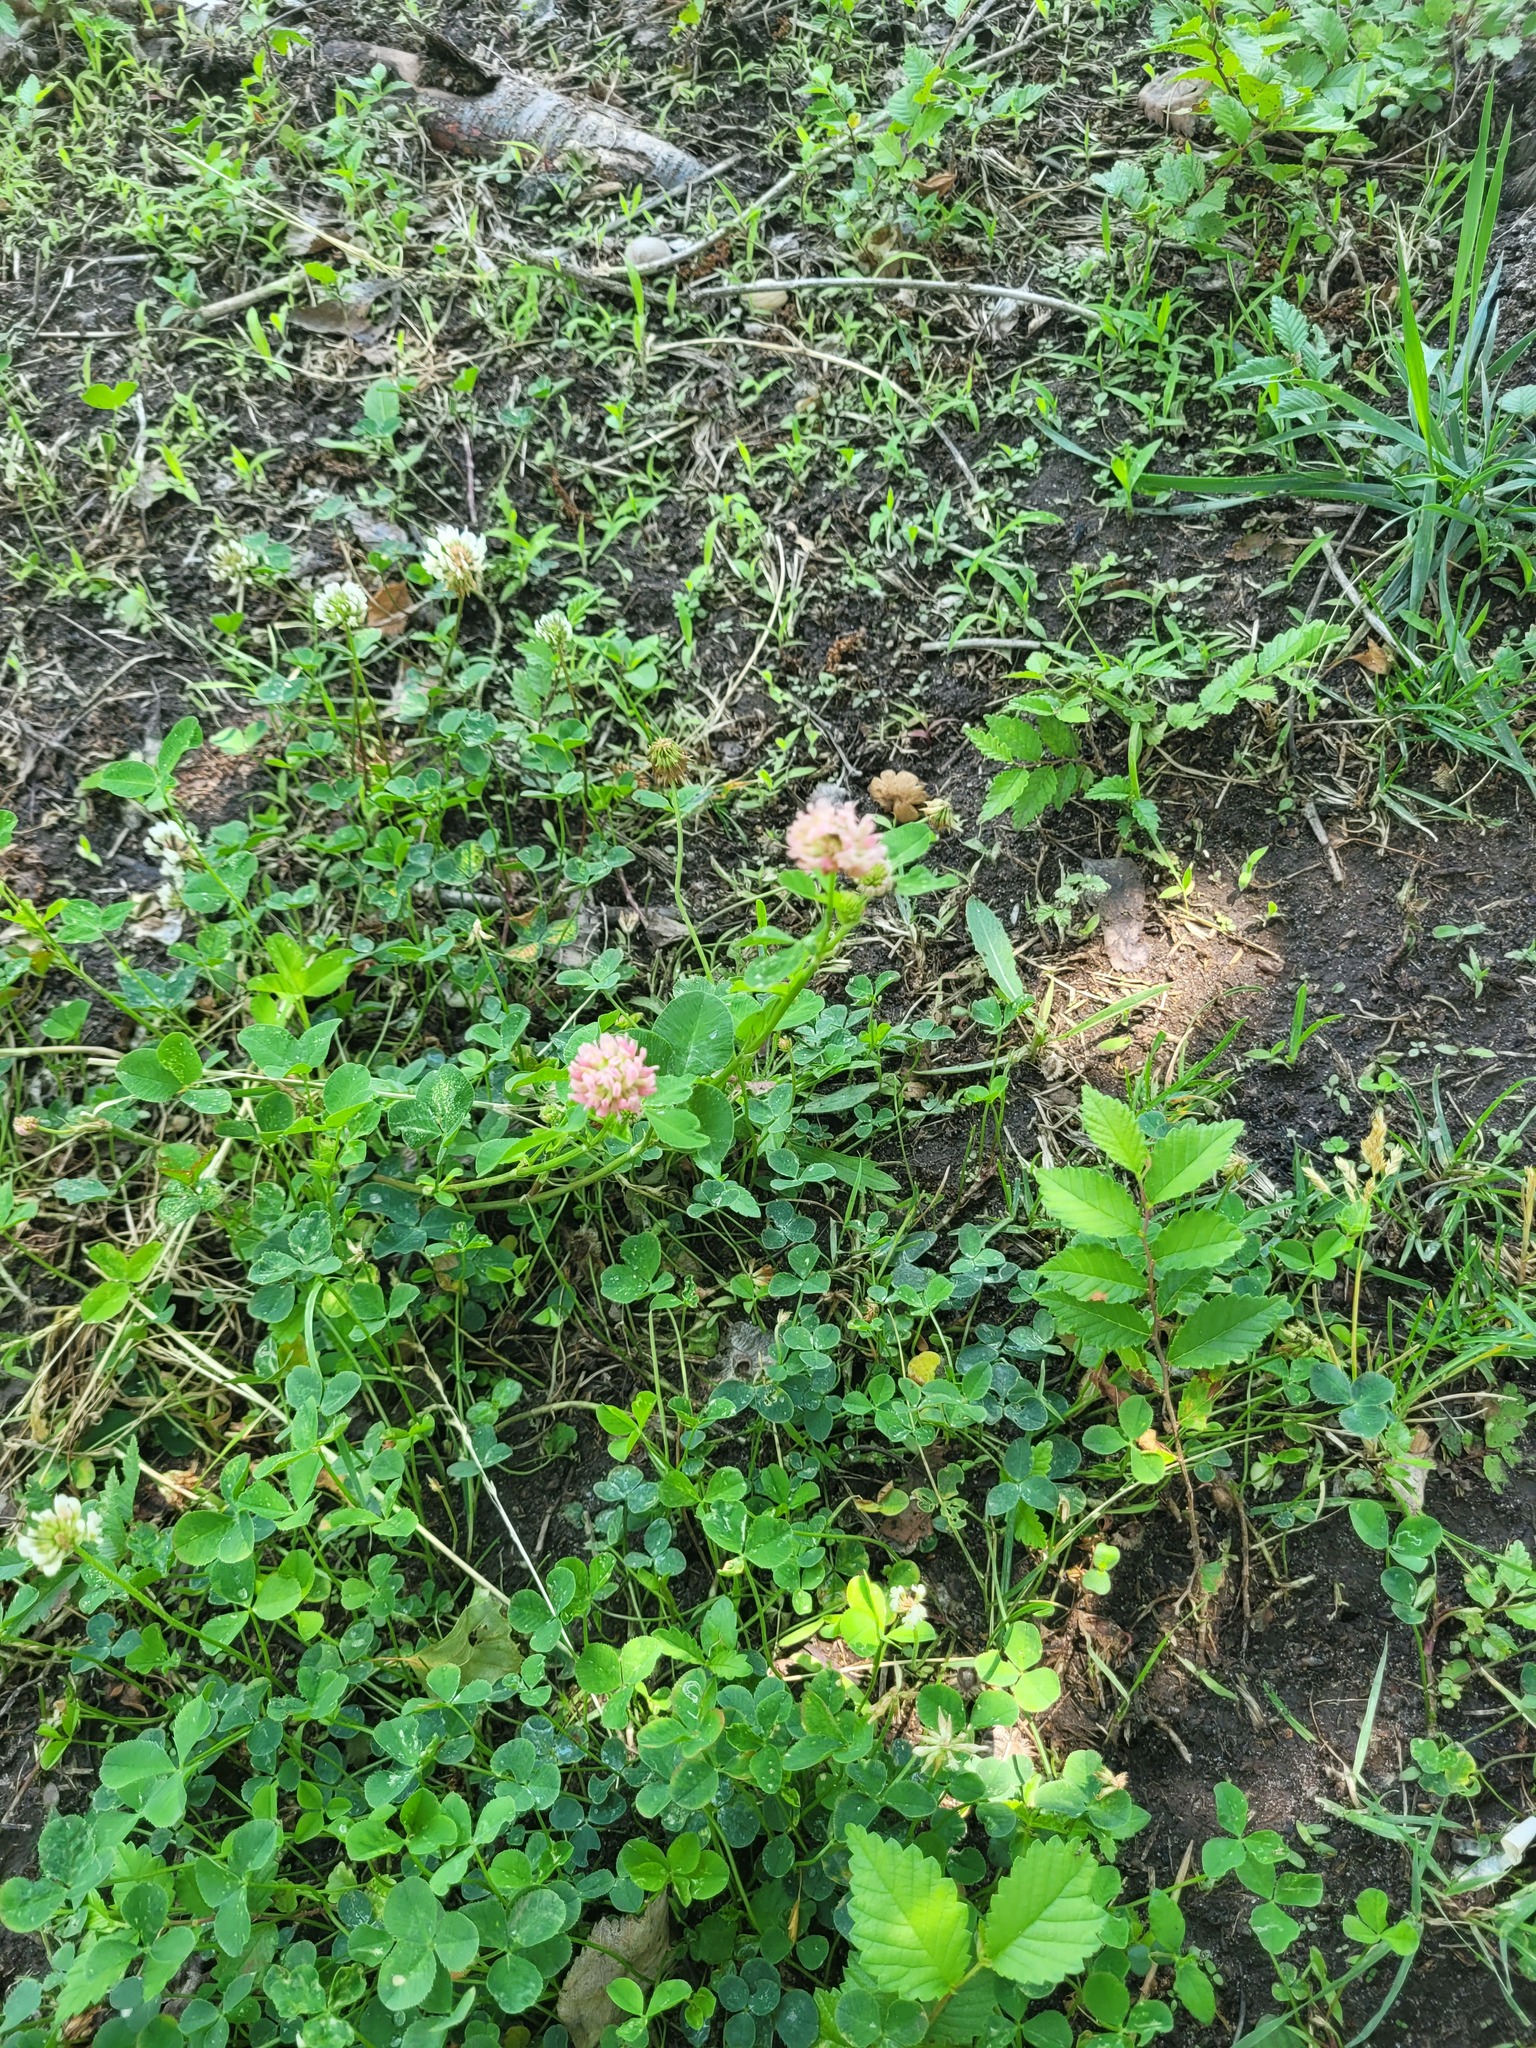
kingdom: Plantae
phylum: Tracheophyta
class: Magnoliopsida
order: Fabales
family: Fabaceae
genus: Trifolium
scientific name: Trifolium hybridum
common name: Alsike clover
